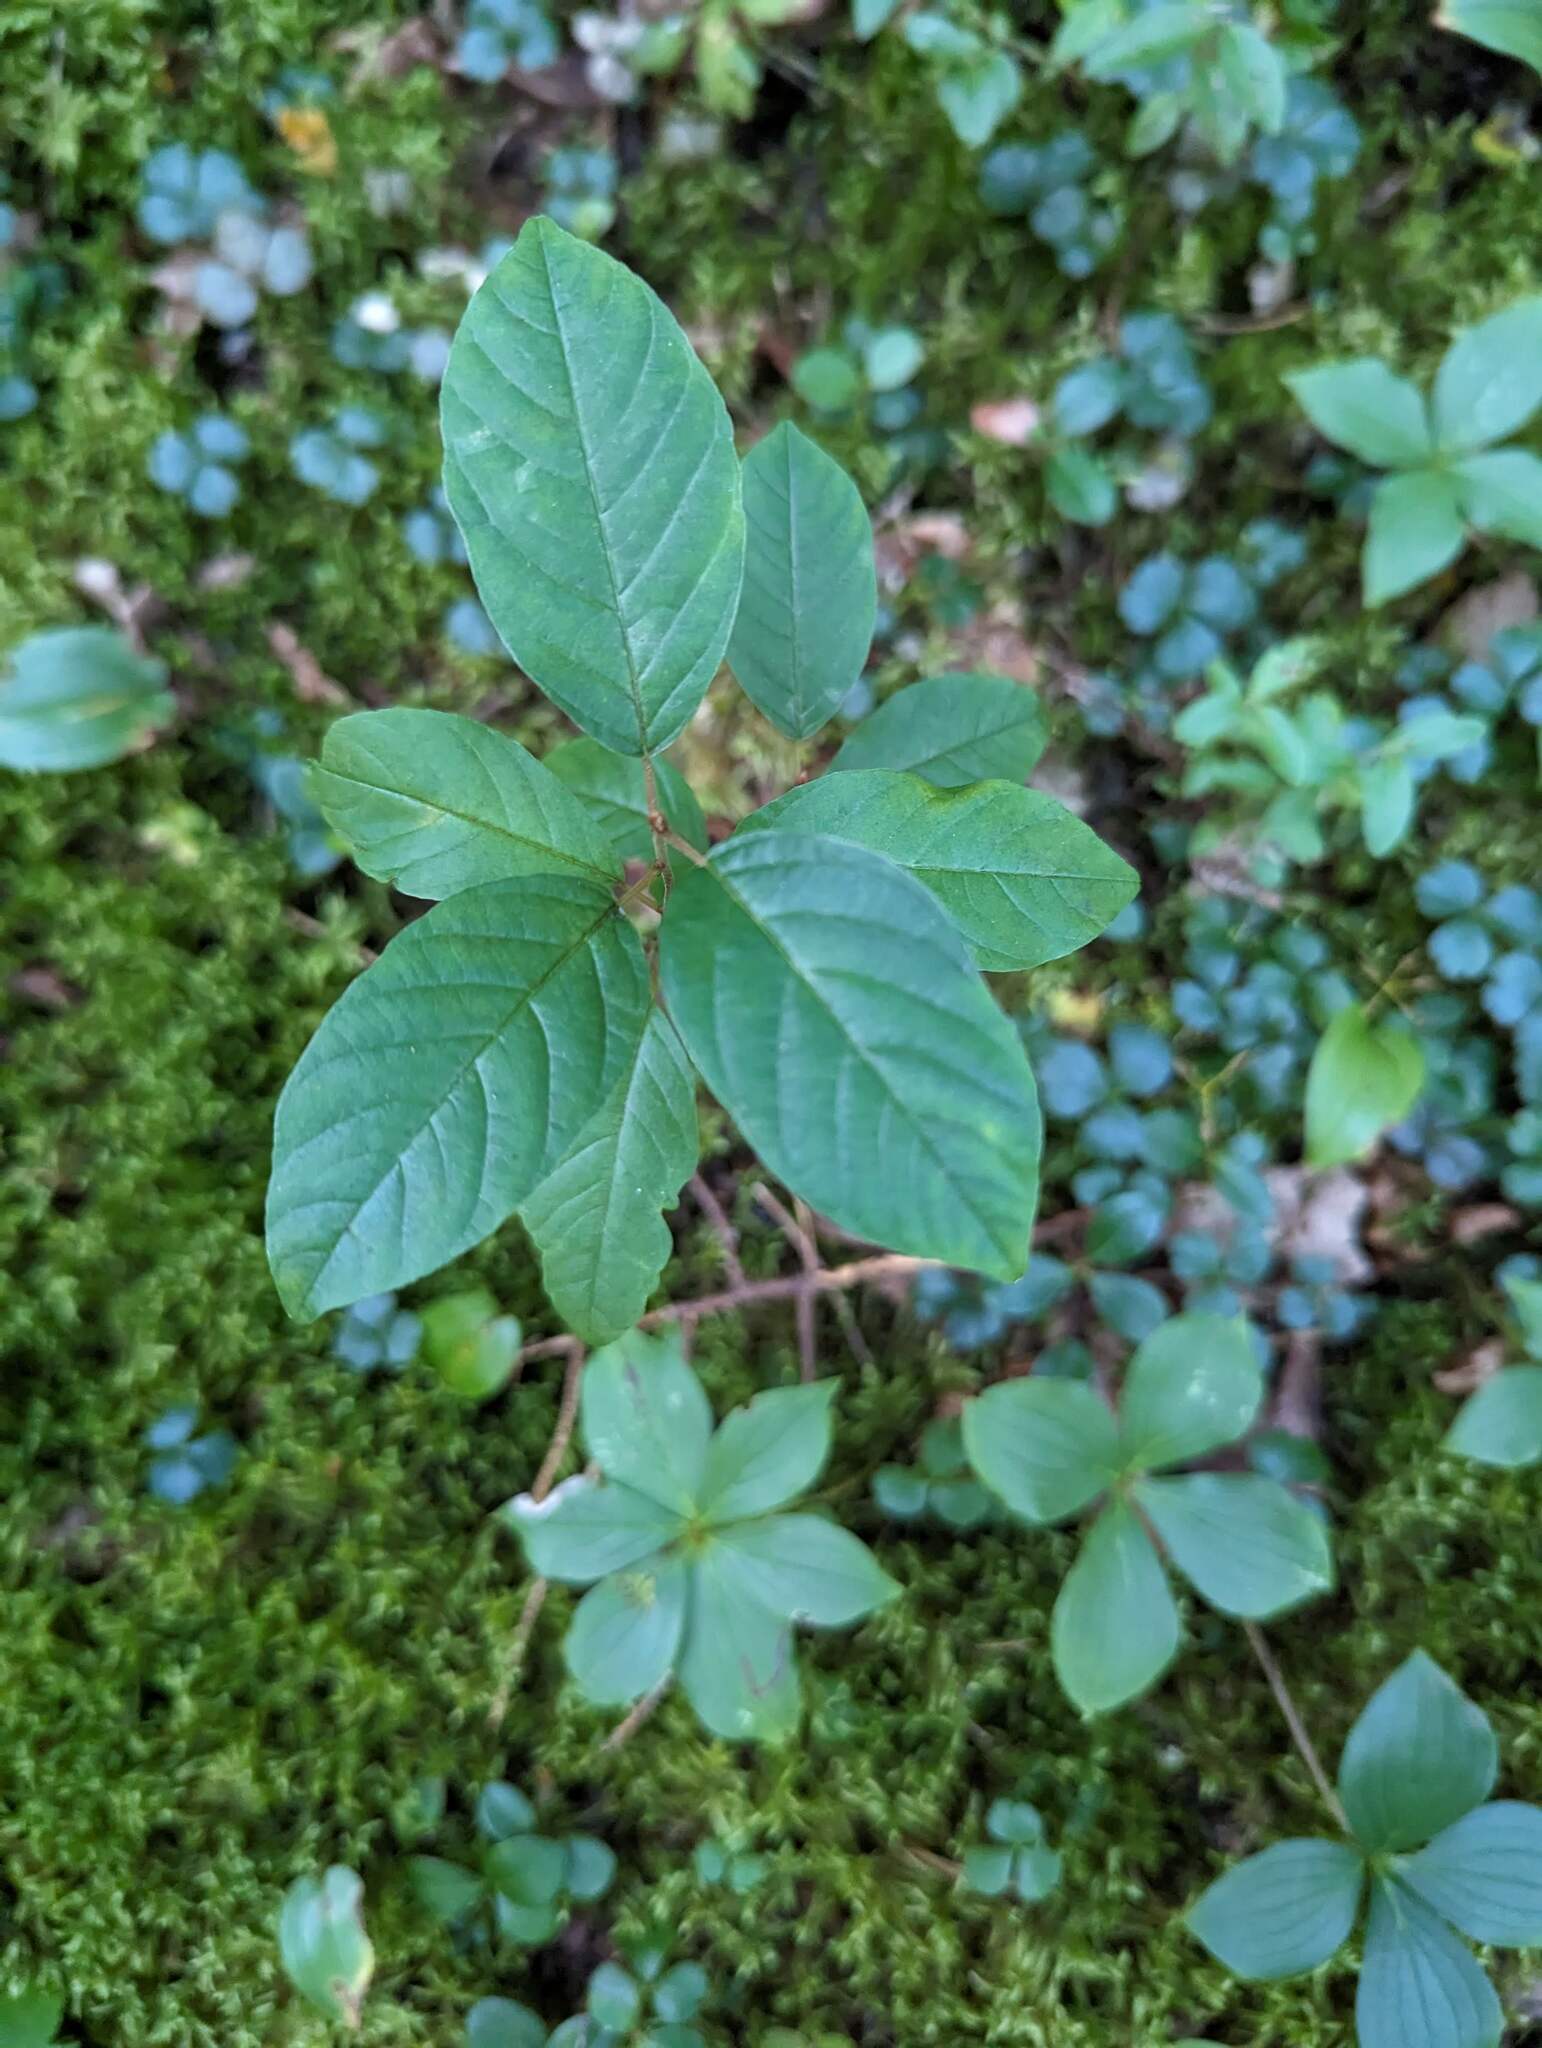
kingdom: Plantae
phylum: Tracheophyta
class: Magnoliopsida
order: Rosales
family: Rhamnaceae
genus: Frangula
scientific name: Frangula alnus
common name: Alder buckthorn
